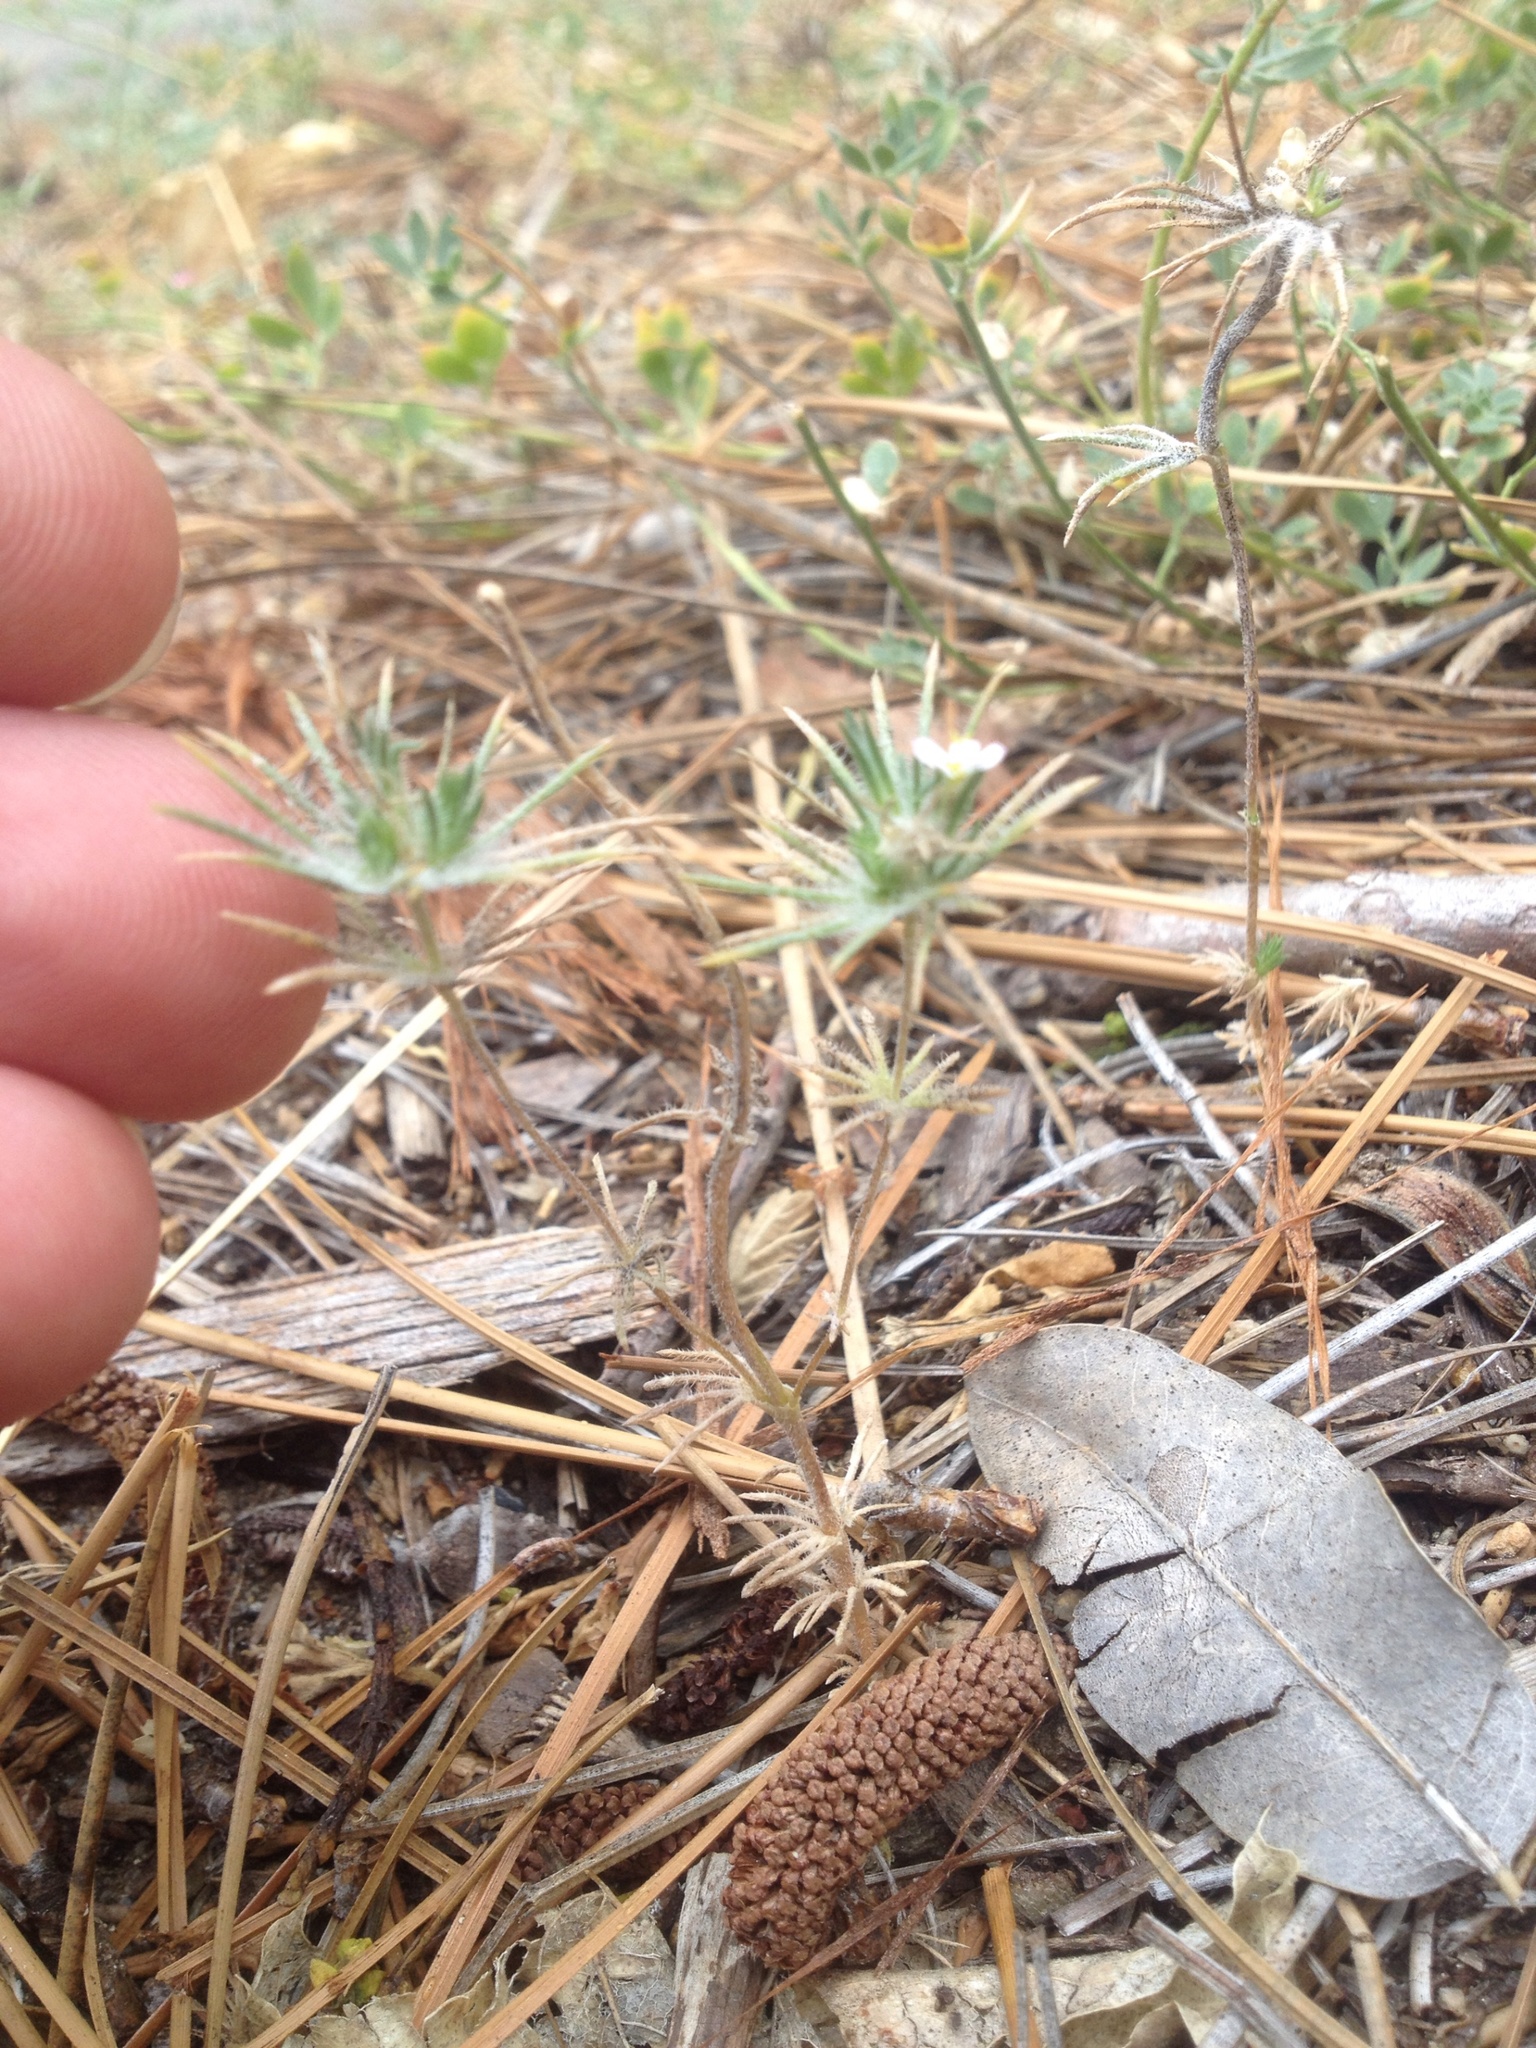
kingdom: Plantae
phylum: Tracheophyta
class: Magnoliopsida
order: Ericales
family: Polemoniaceae
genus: Leptosiphon
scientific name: Leptosiphon ciliatus
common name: Whiskerbrush
